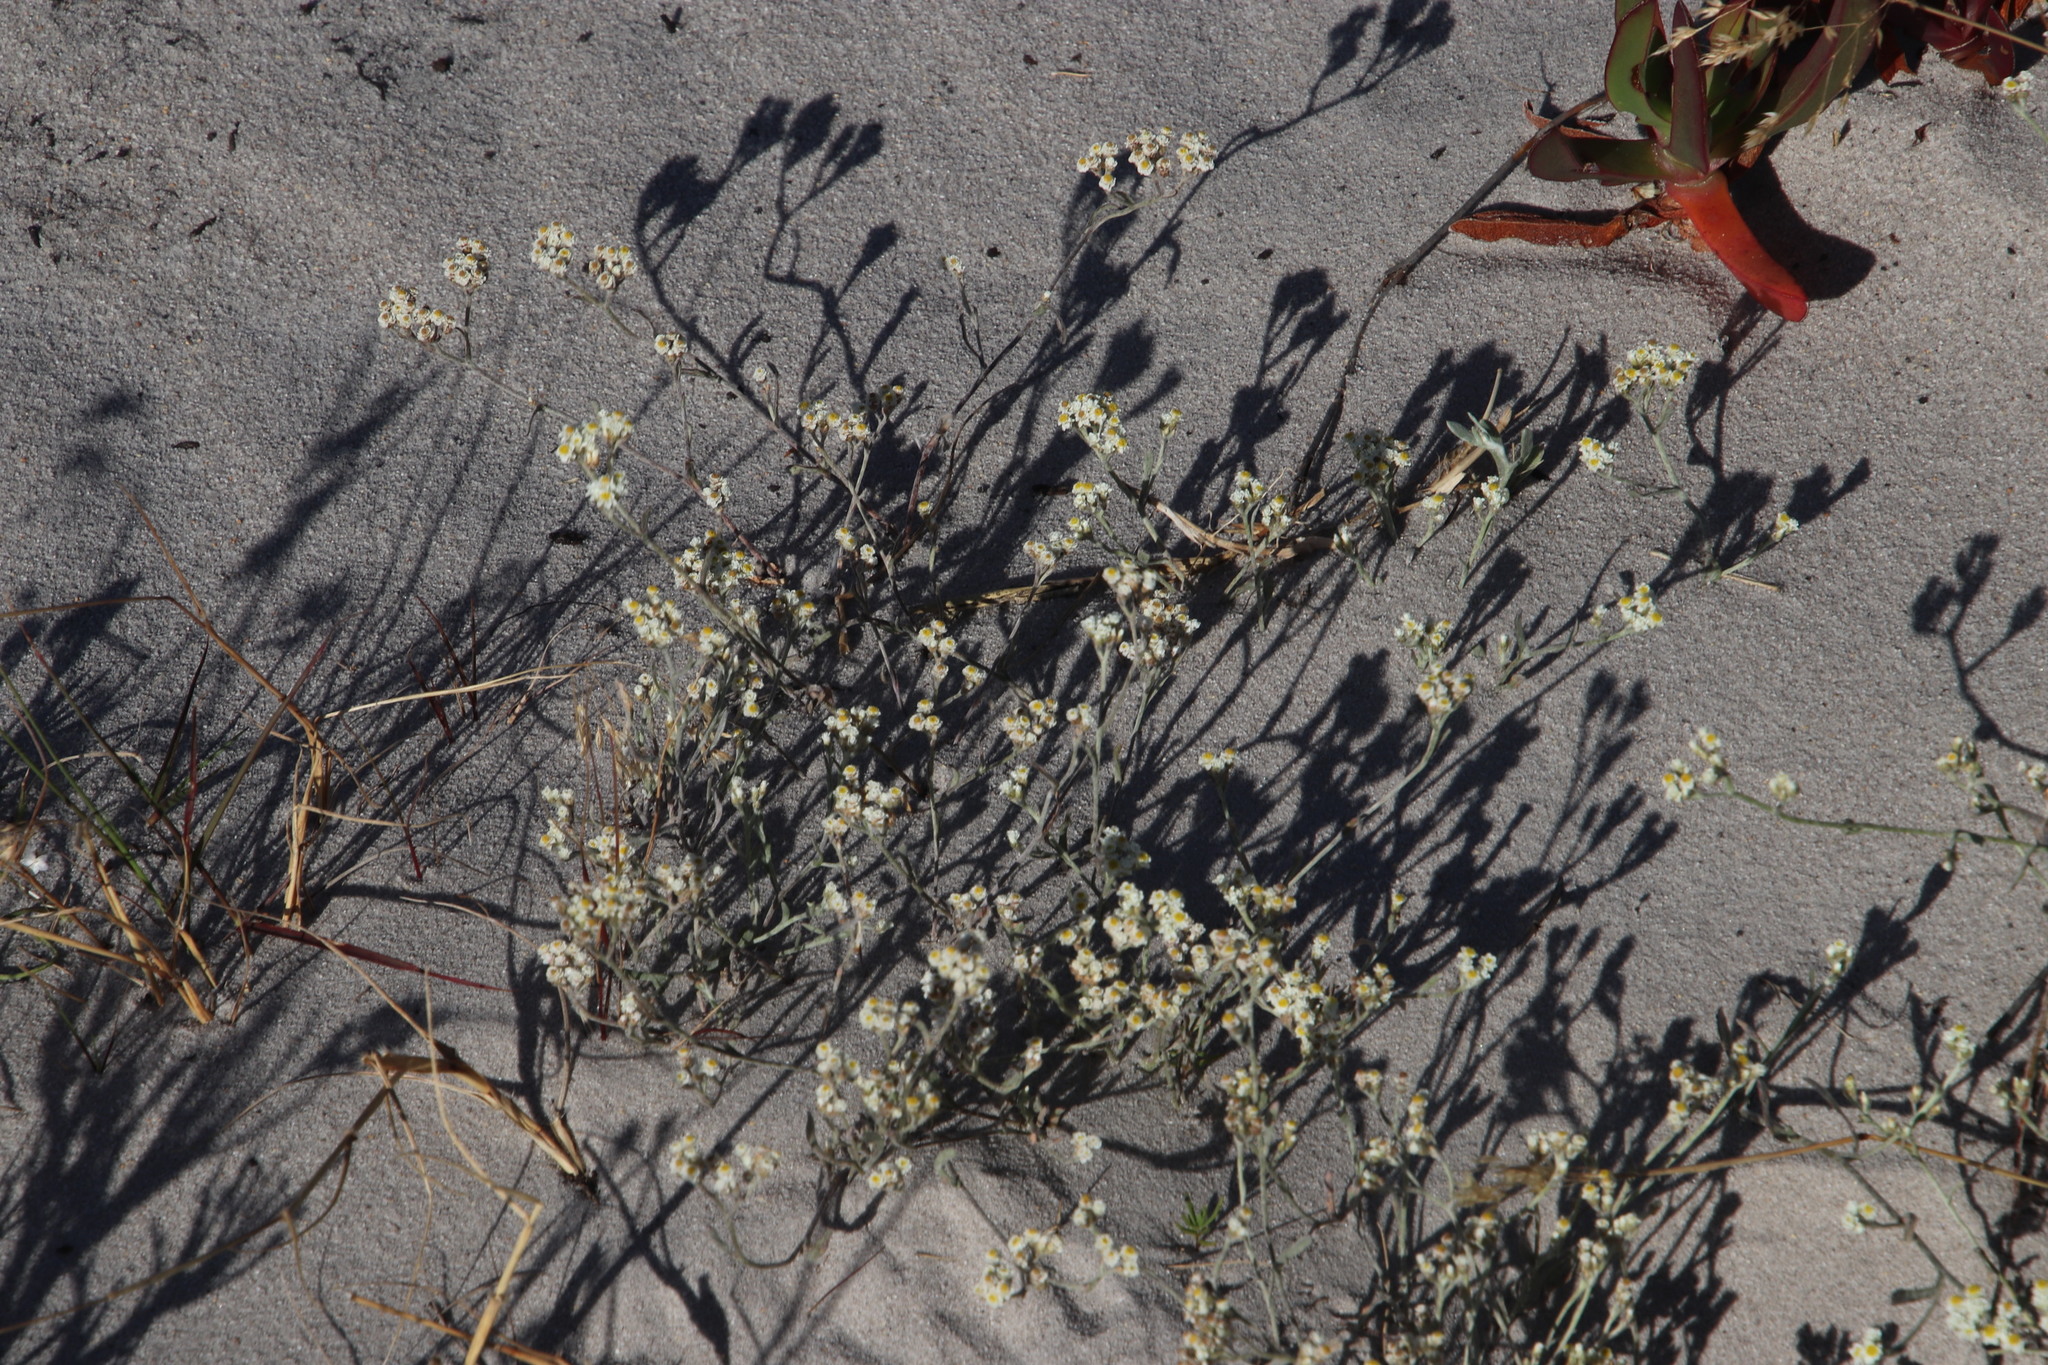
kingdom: Plantae
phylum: Tracheophyta
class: Magnoliopsida
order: Asterales
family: Asteraceae
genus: Helichrysum
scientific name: Helichrysum indicum
